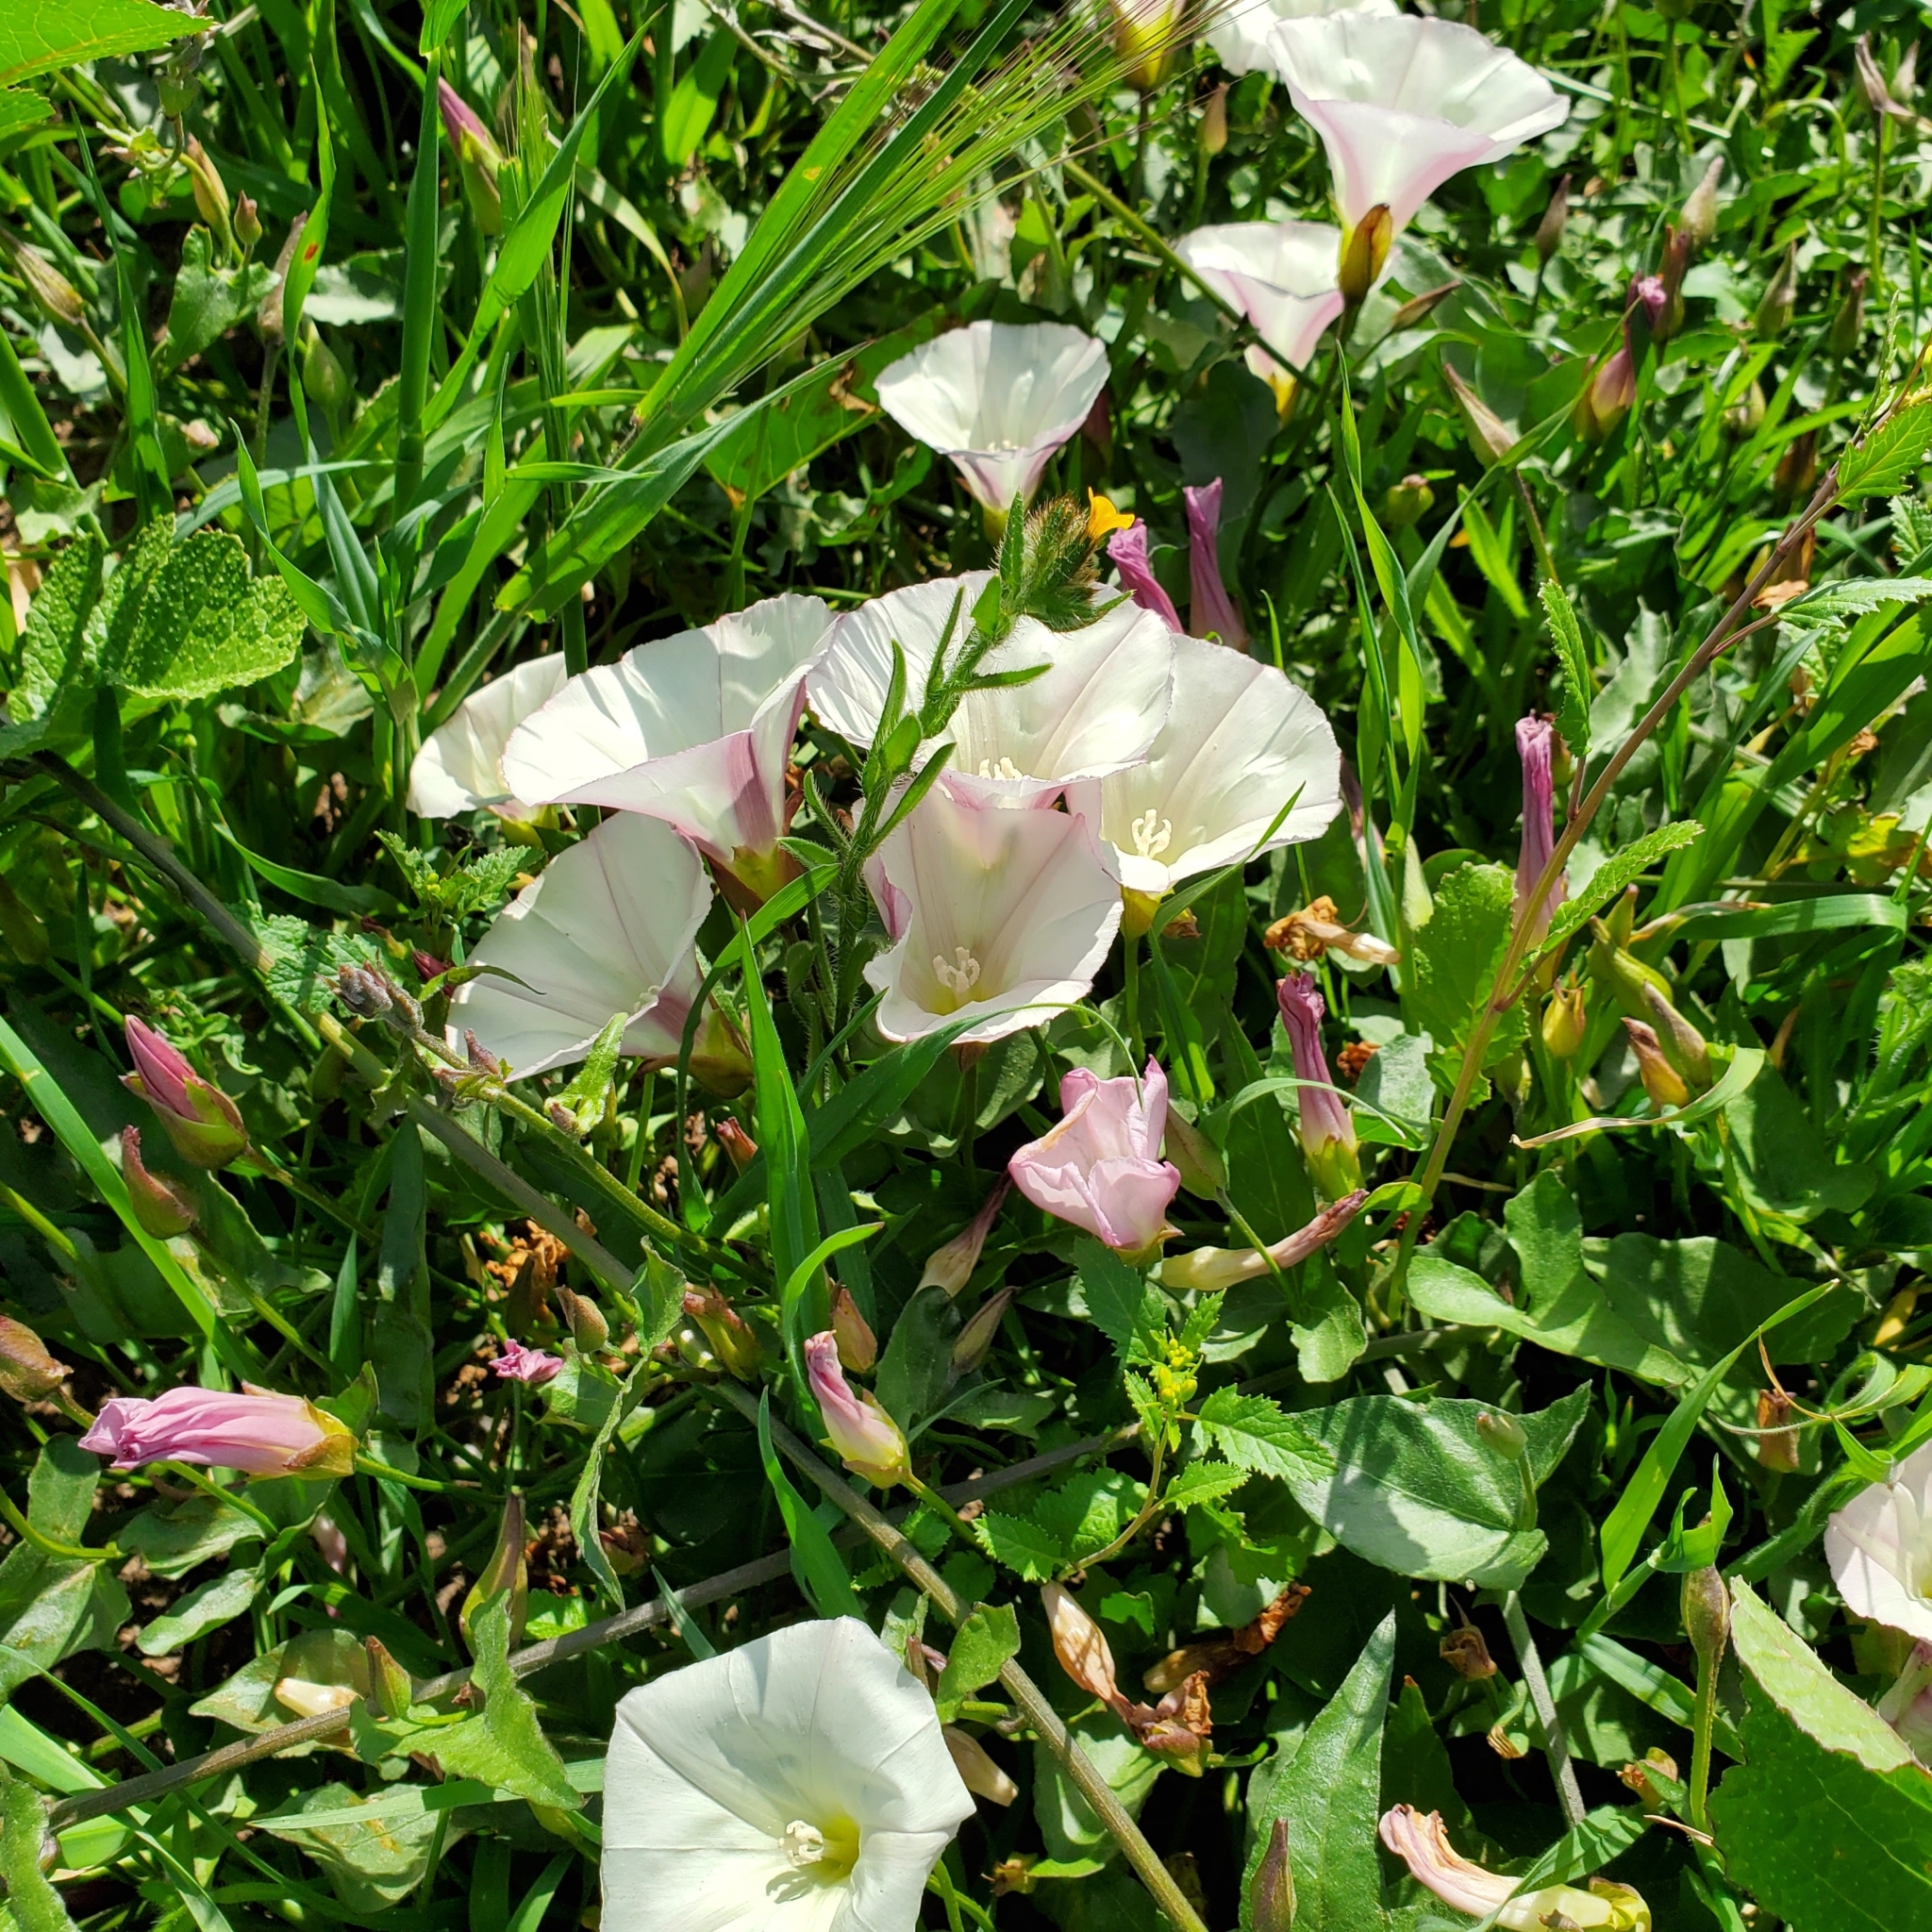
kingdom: Plantae
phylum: Tracheophyta
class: Magnoliopsida
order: Solanales
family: Convolvulaceae
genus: Calystegia
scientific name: Calystegia macrostegia
